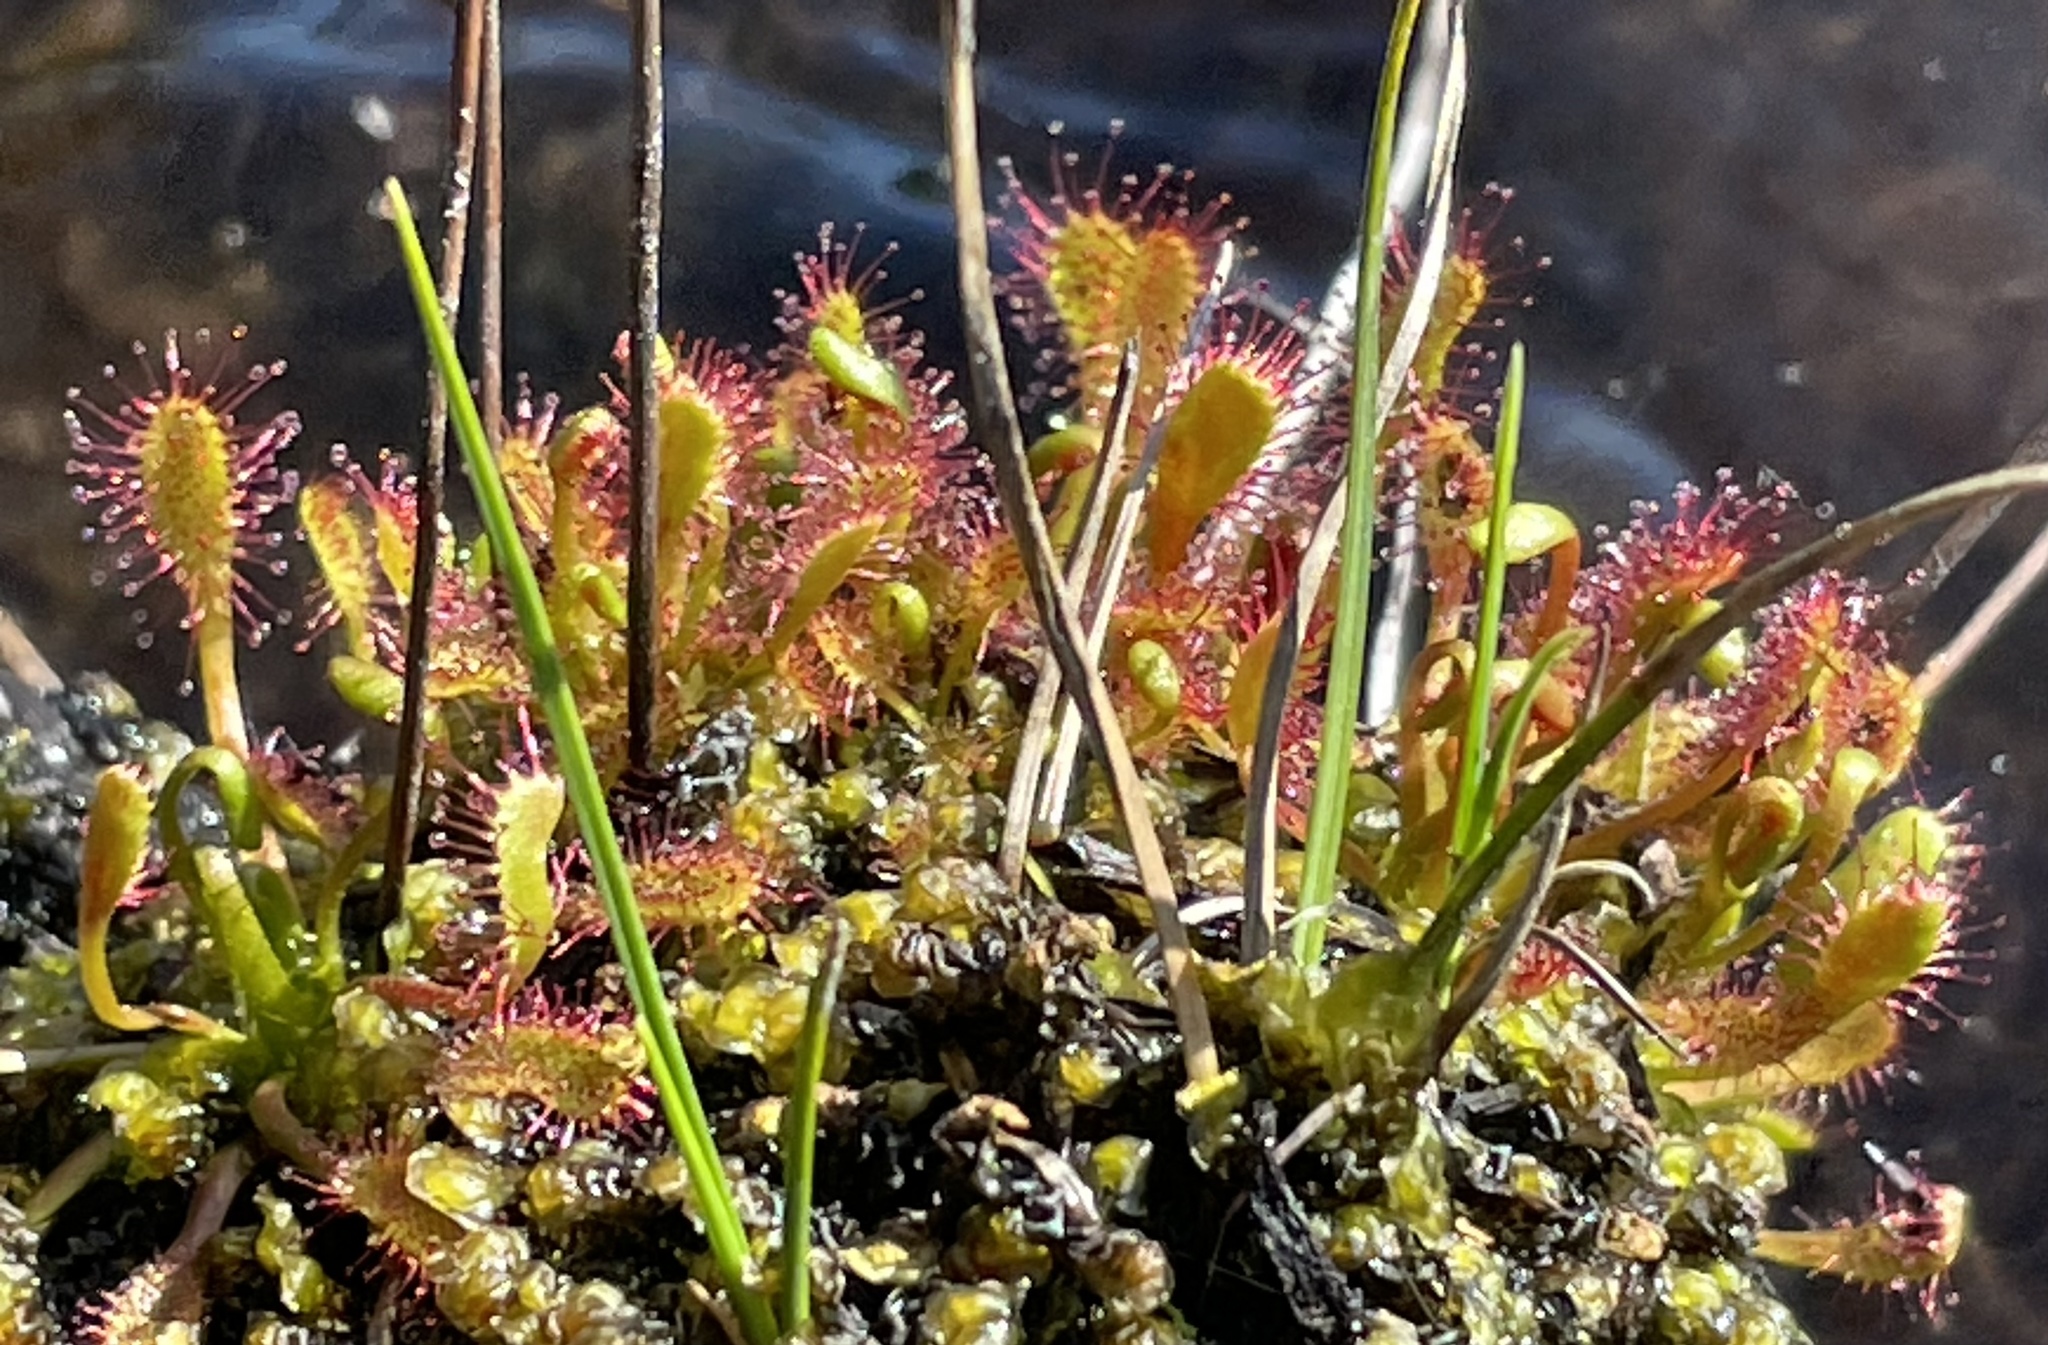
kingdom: Plantae
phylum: Tracheophyta
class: Magnoliopsida
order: Caryophyllales
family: Droseraceae
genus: Drosera
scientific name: Drosera anglica
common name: Great sundew
